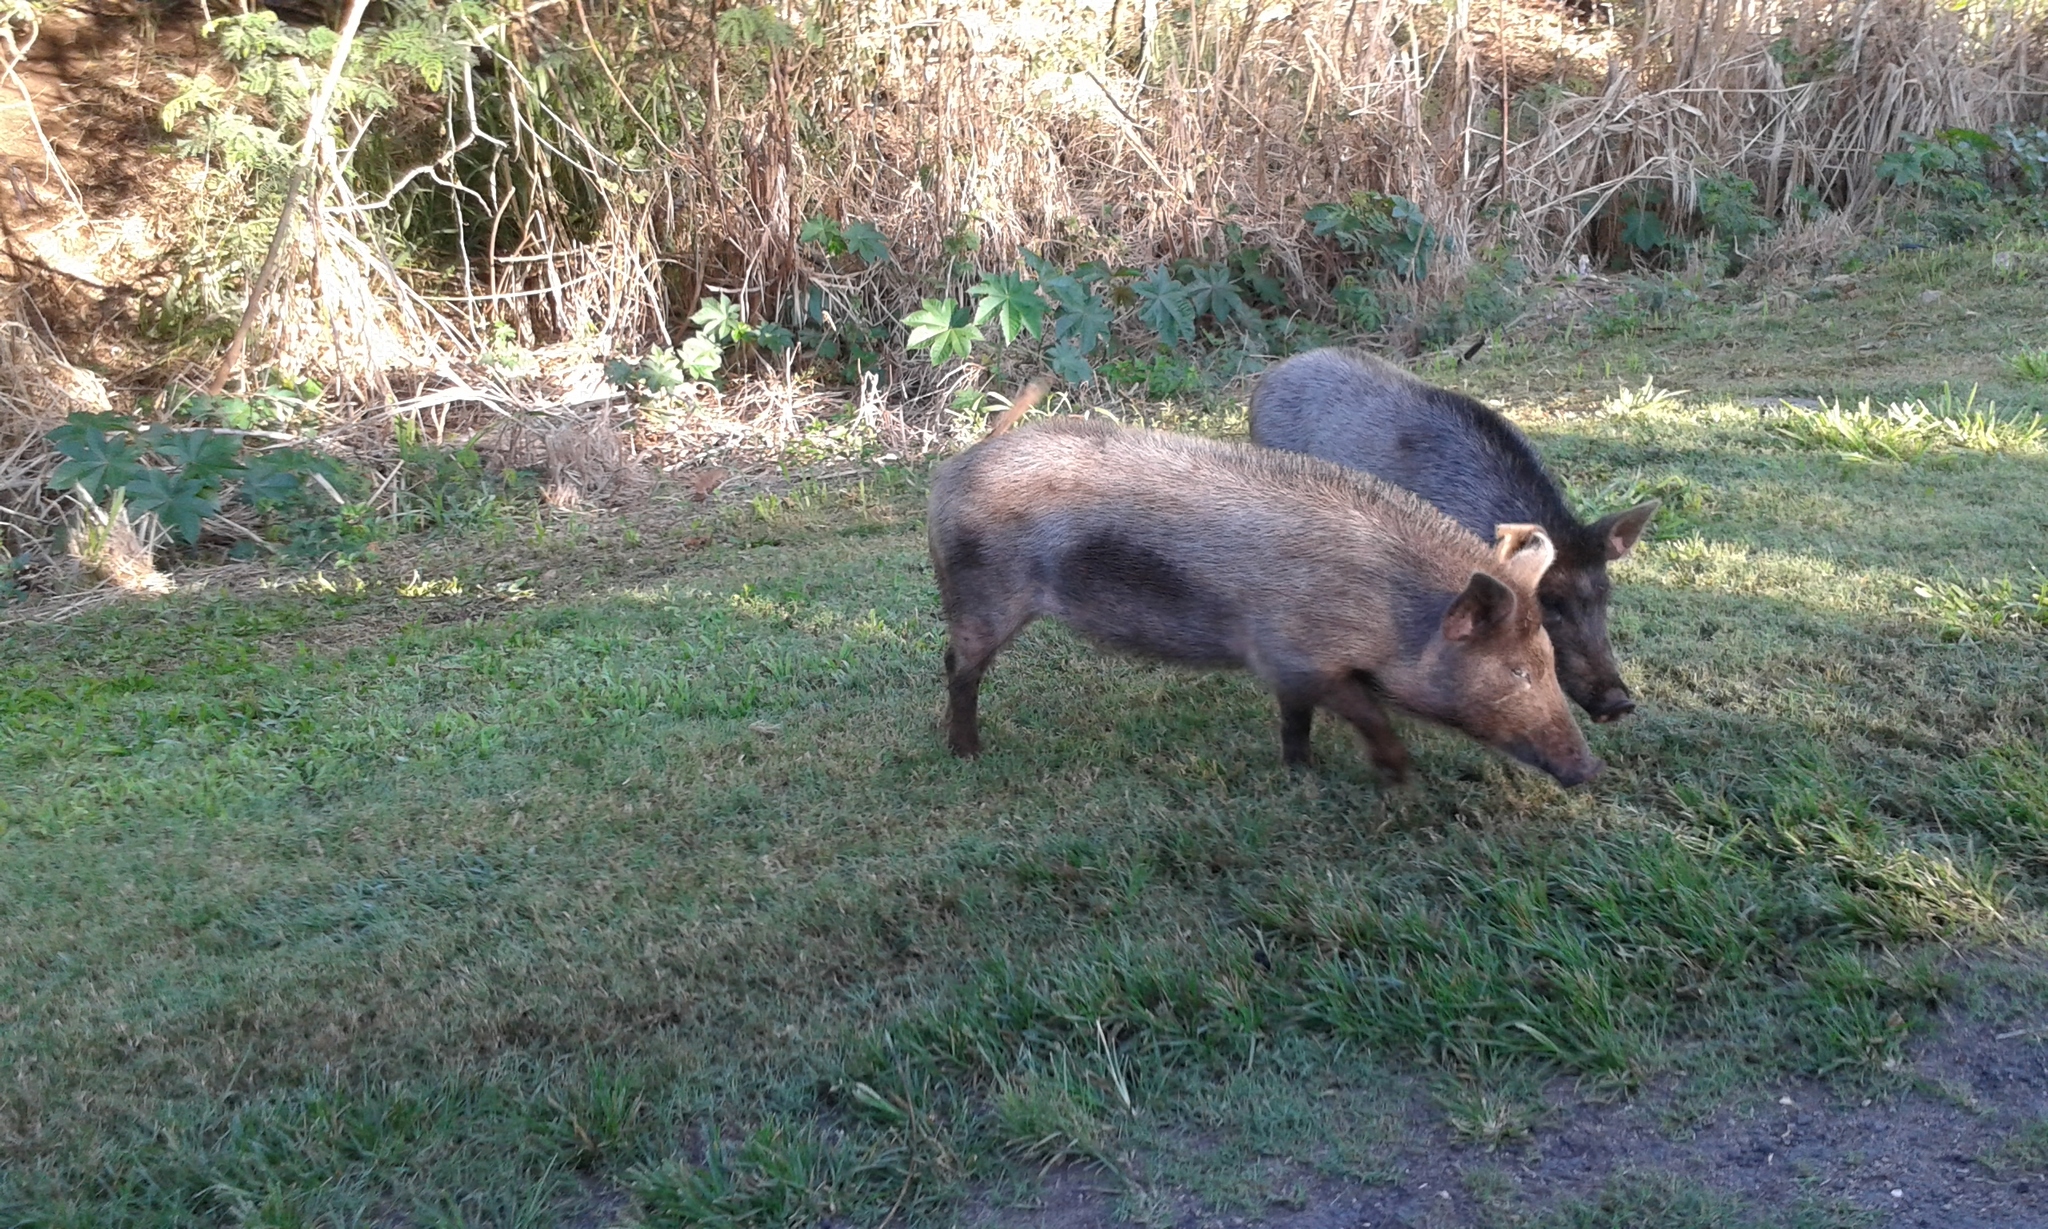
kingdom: Animalia
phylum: Chordata
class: Mammalia
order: Artiodactyla
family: Suidae
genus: Sus
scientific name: Sus scrofa
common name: Wild boar
